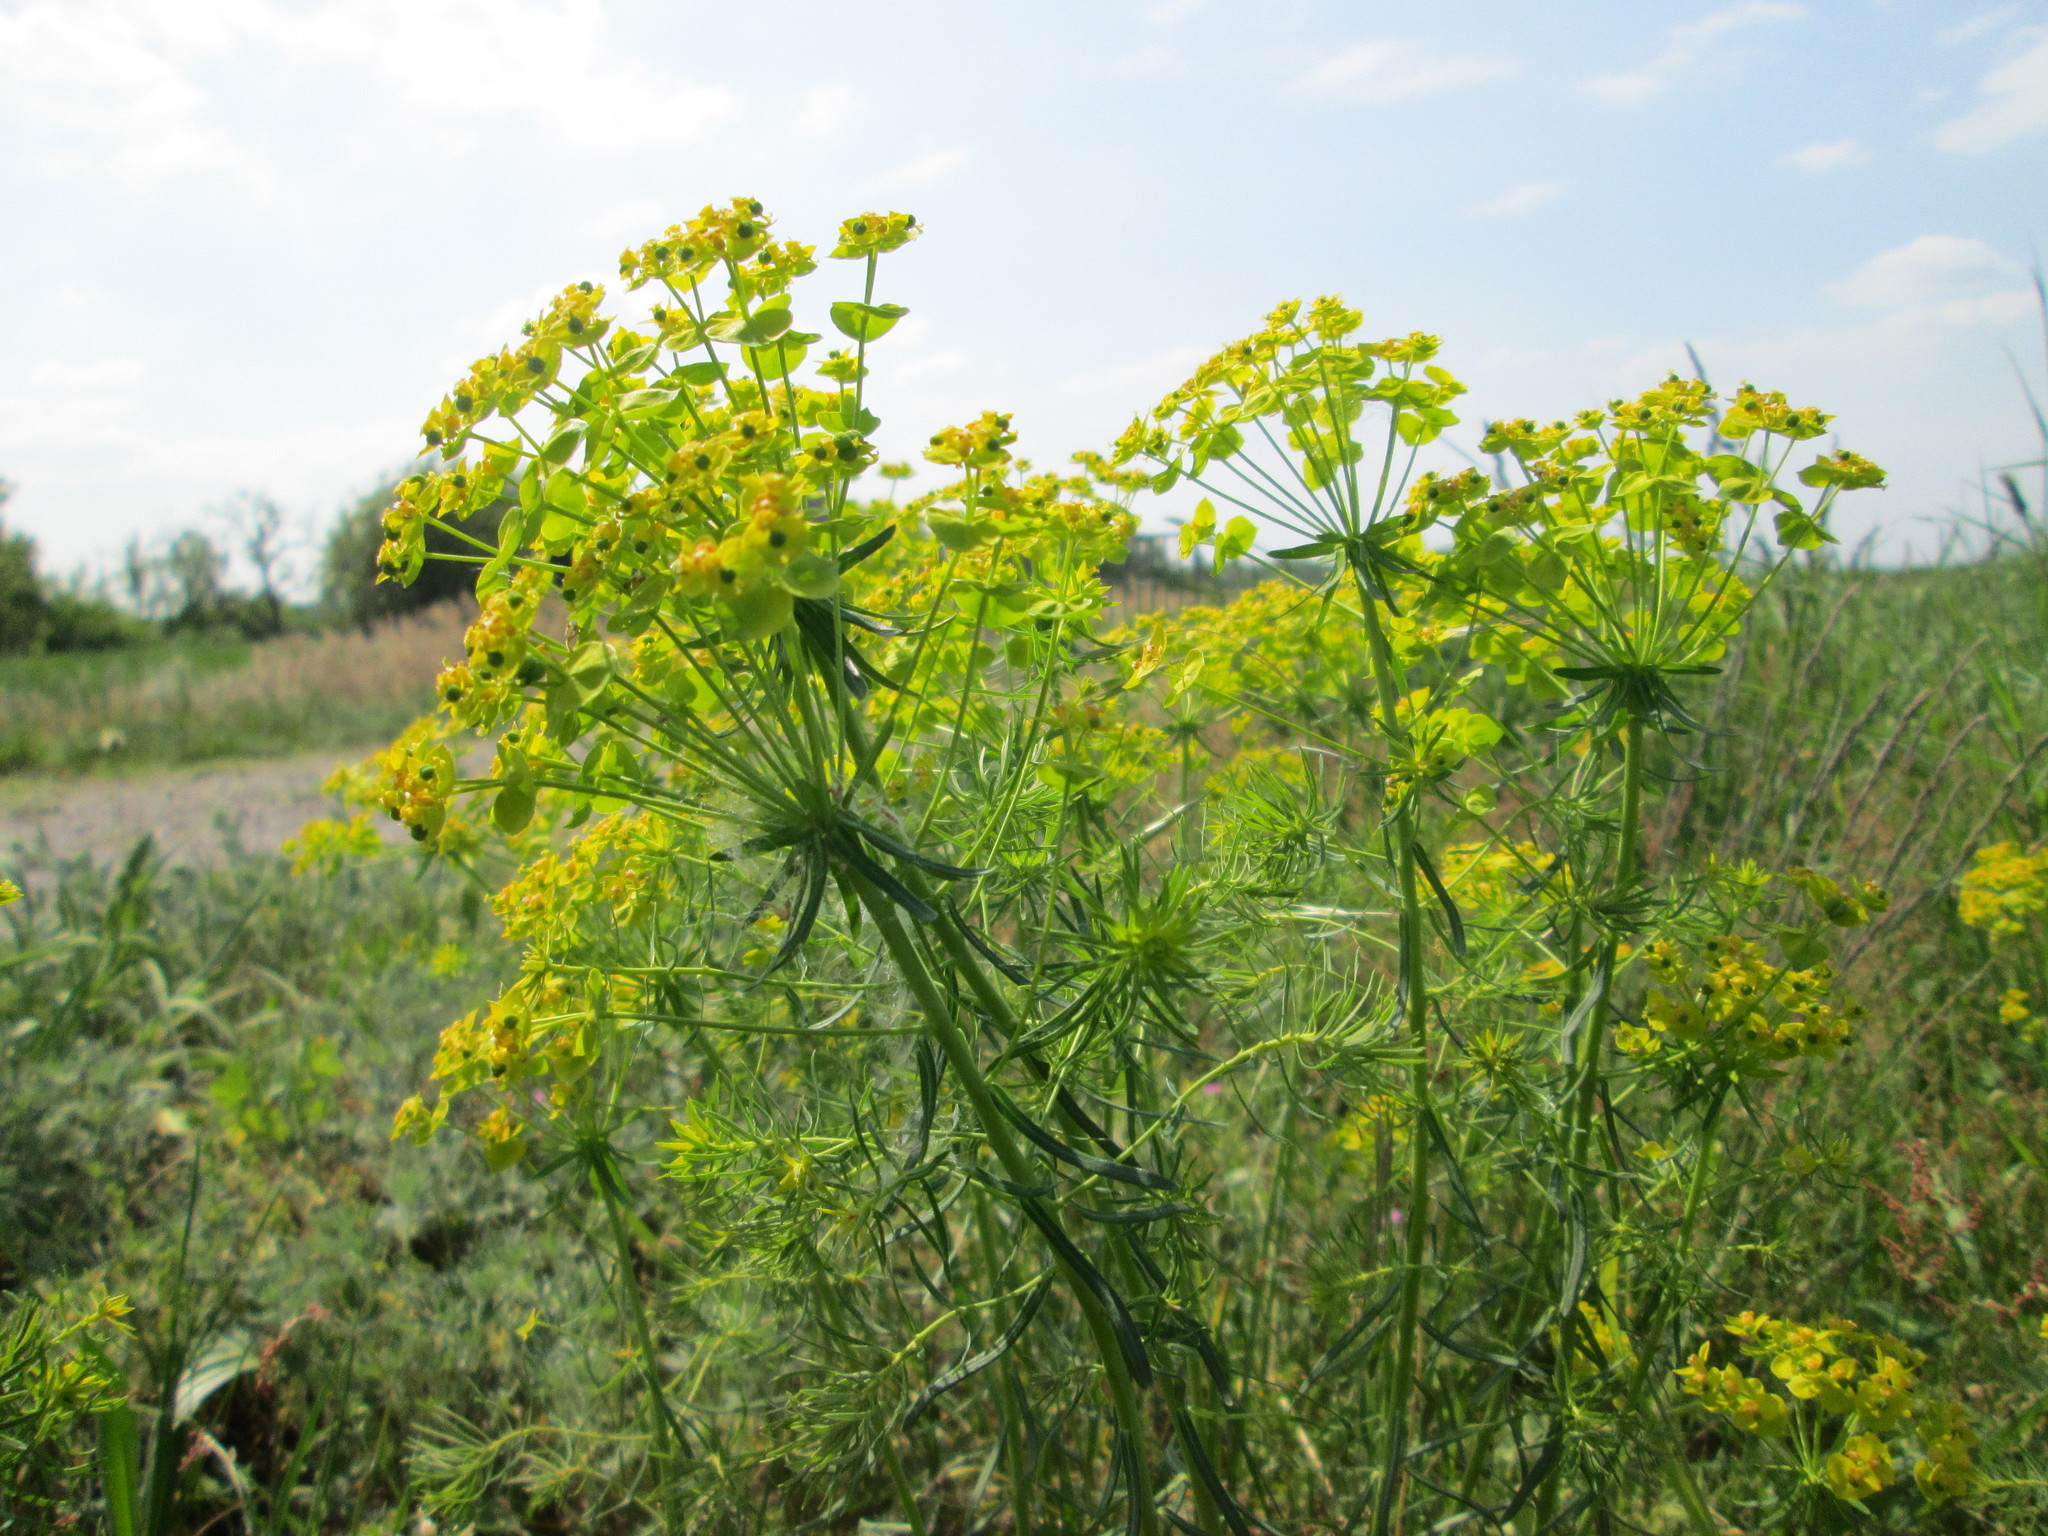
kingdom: Plantae
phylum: Tracheophyta
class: Magnoliopsida
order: Malpighiales
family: Euphorbiaceae
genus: Euphorbia
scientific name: Euphorbia cyparissias
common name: Cypress spurge
